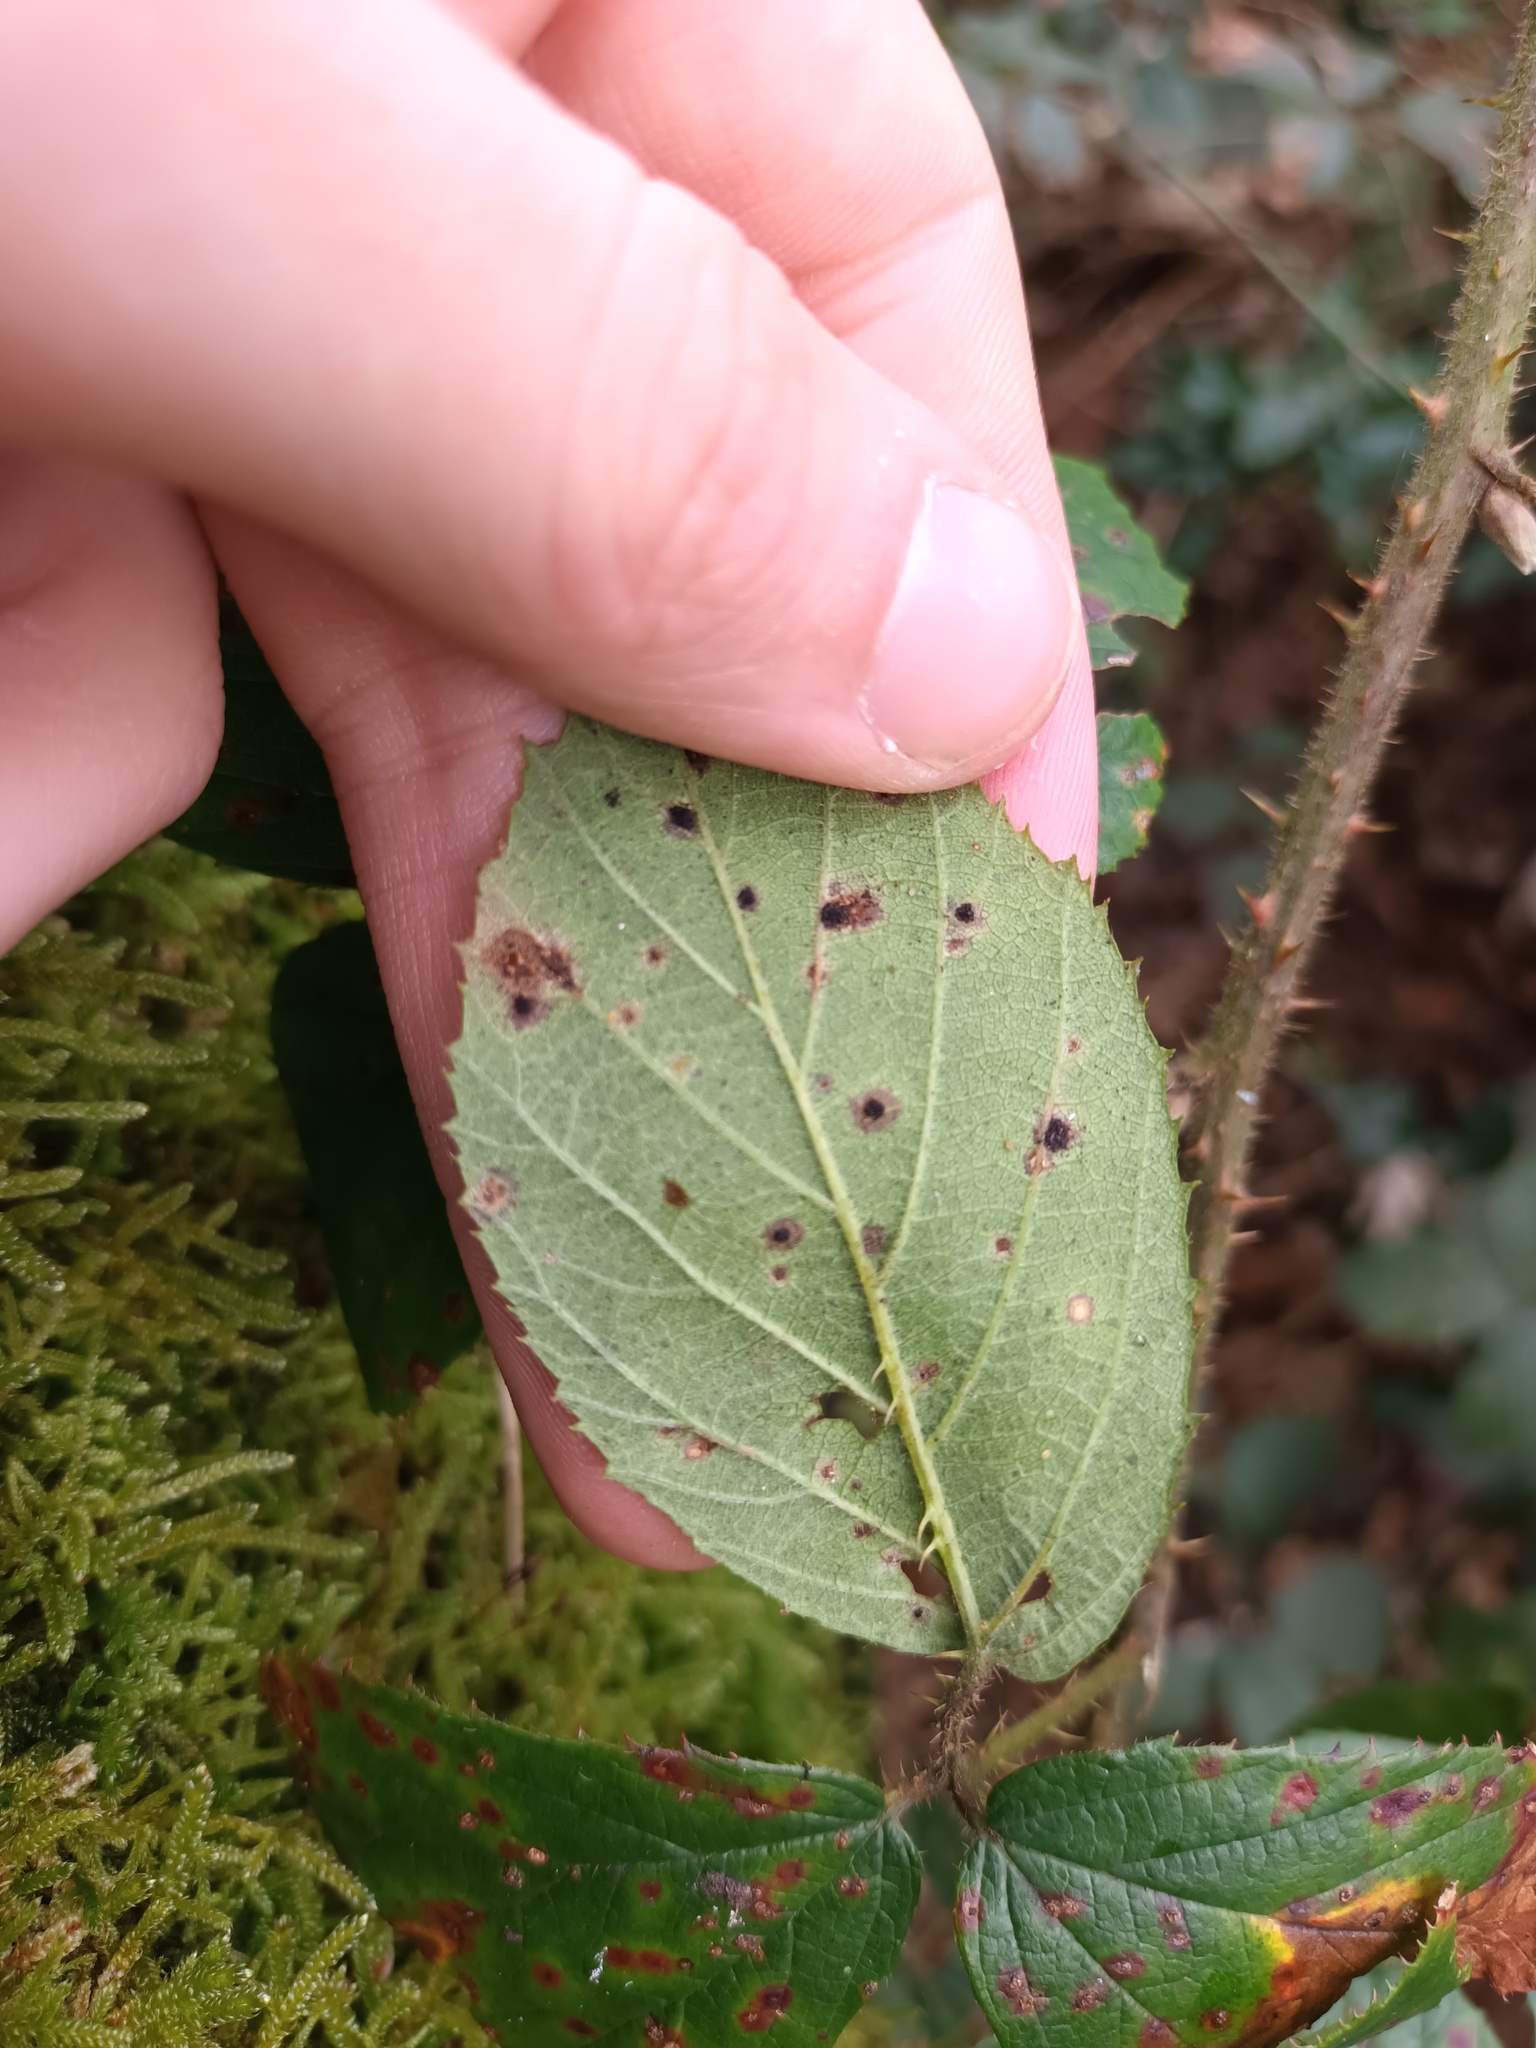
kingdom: Fungi
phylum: Basidiomycota
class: Pucciniomycetes
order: Pucciniales
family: Phragmidiaceae
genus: Phragmidium
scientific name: Phragmidium violaceum
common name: Violet bramble rust
